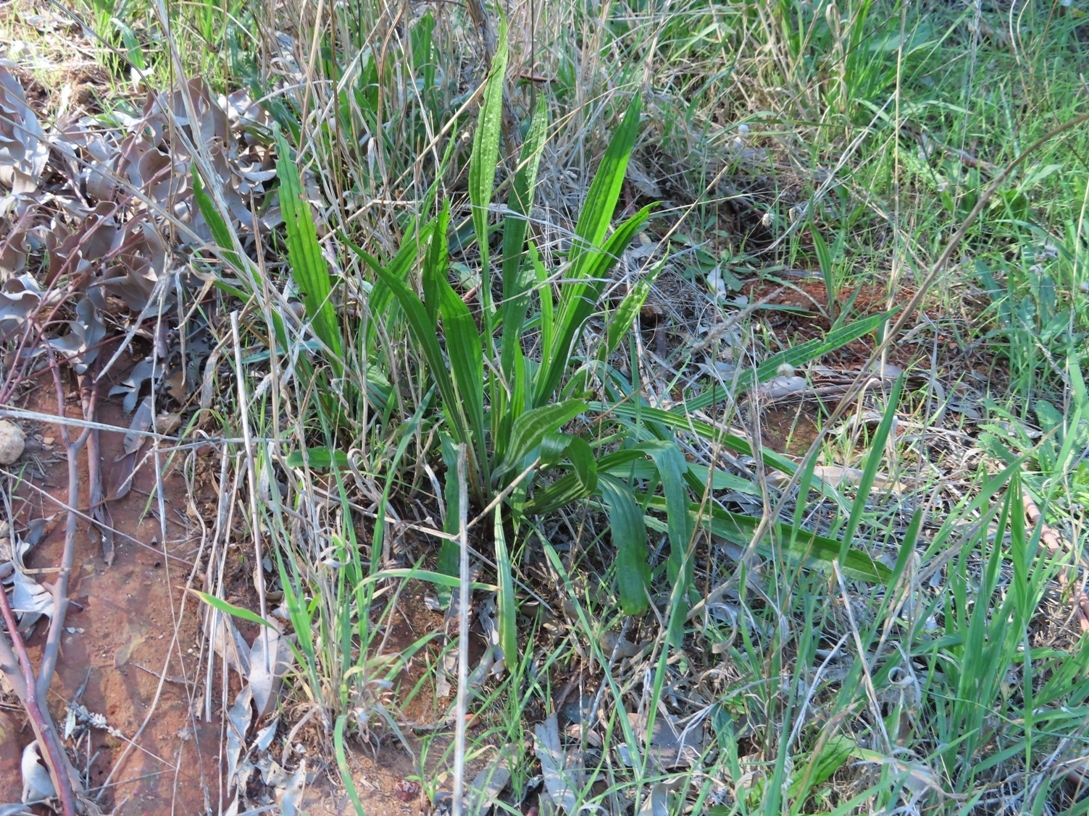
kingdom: Plantae
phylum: Tracheophyta
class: Magnoliopsida
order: Lamiales
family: Plantaginaceae
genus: Plantago
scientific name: Plantago lanceolata
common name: Ribwort plantain
